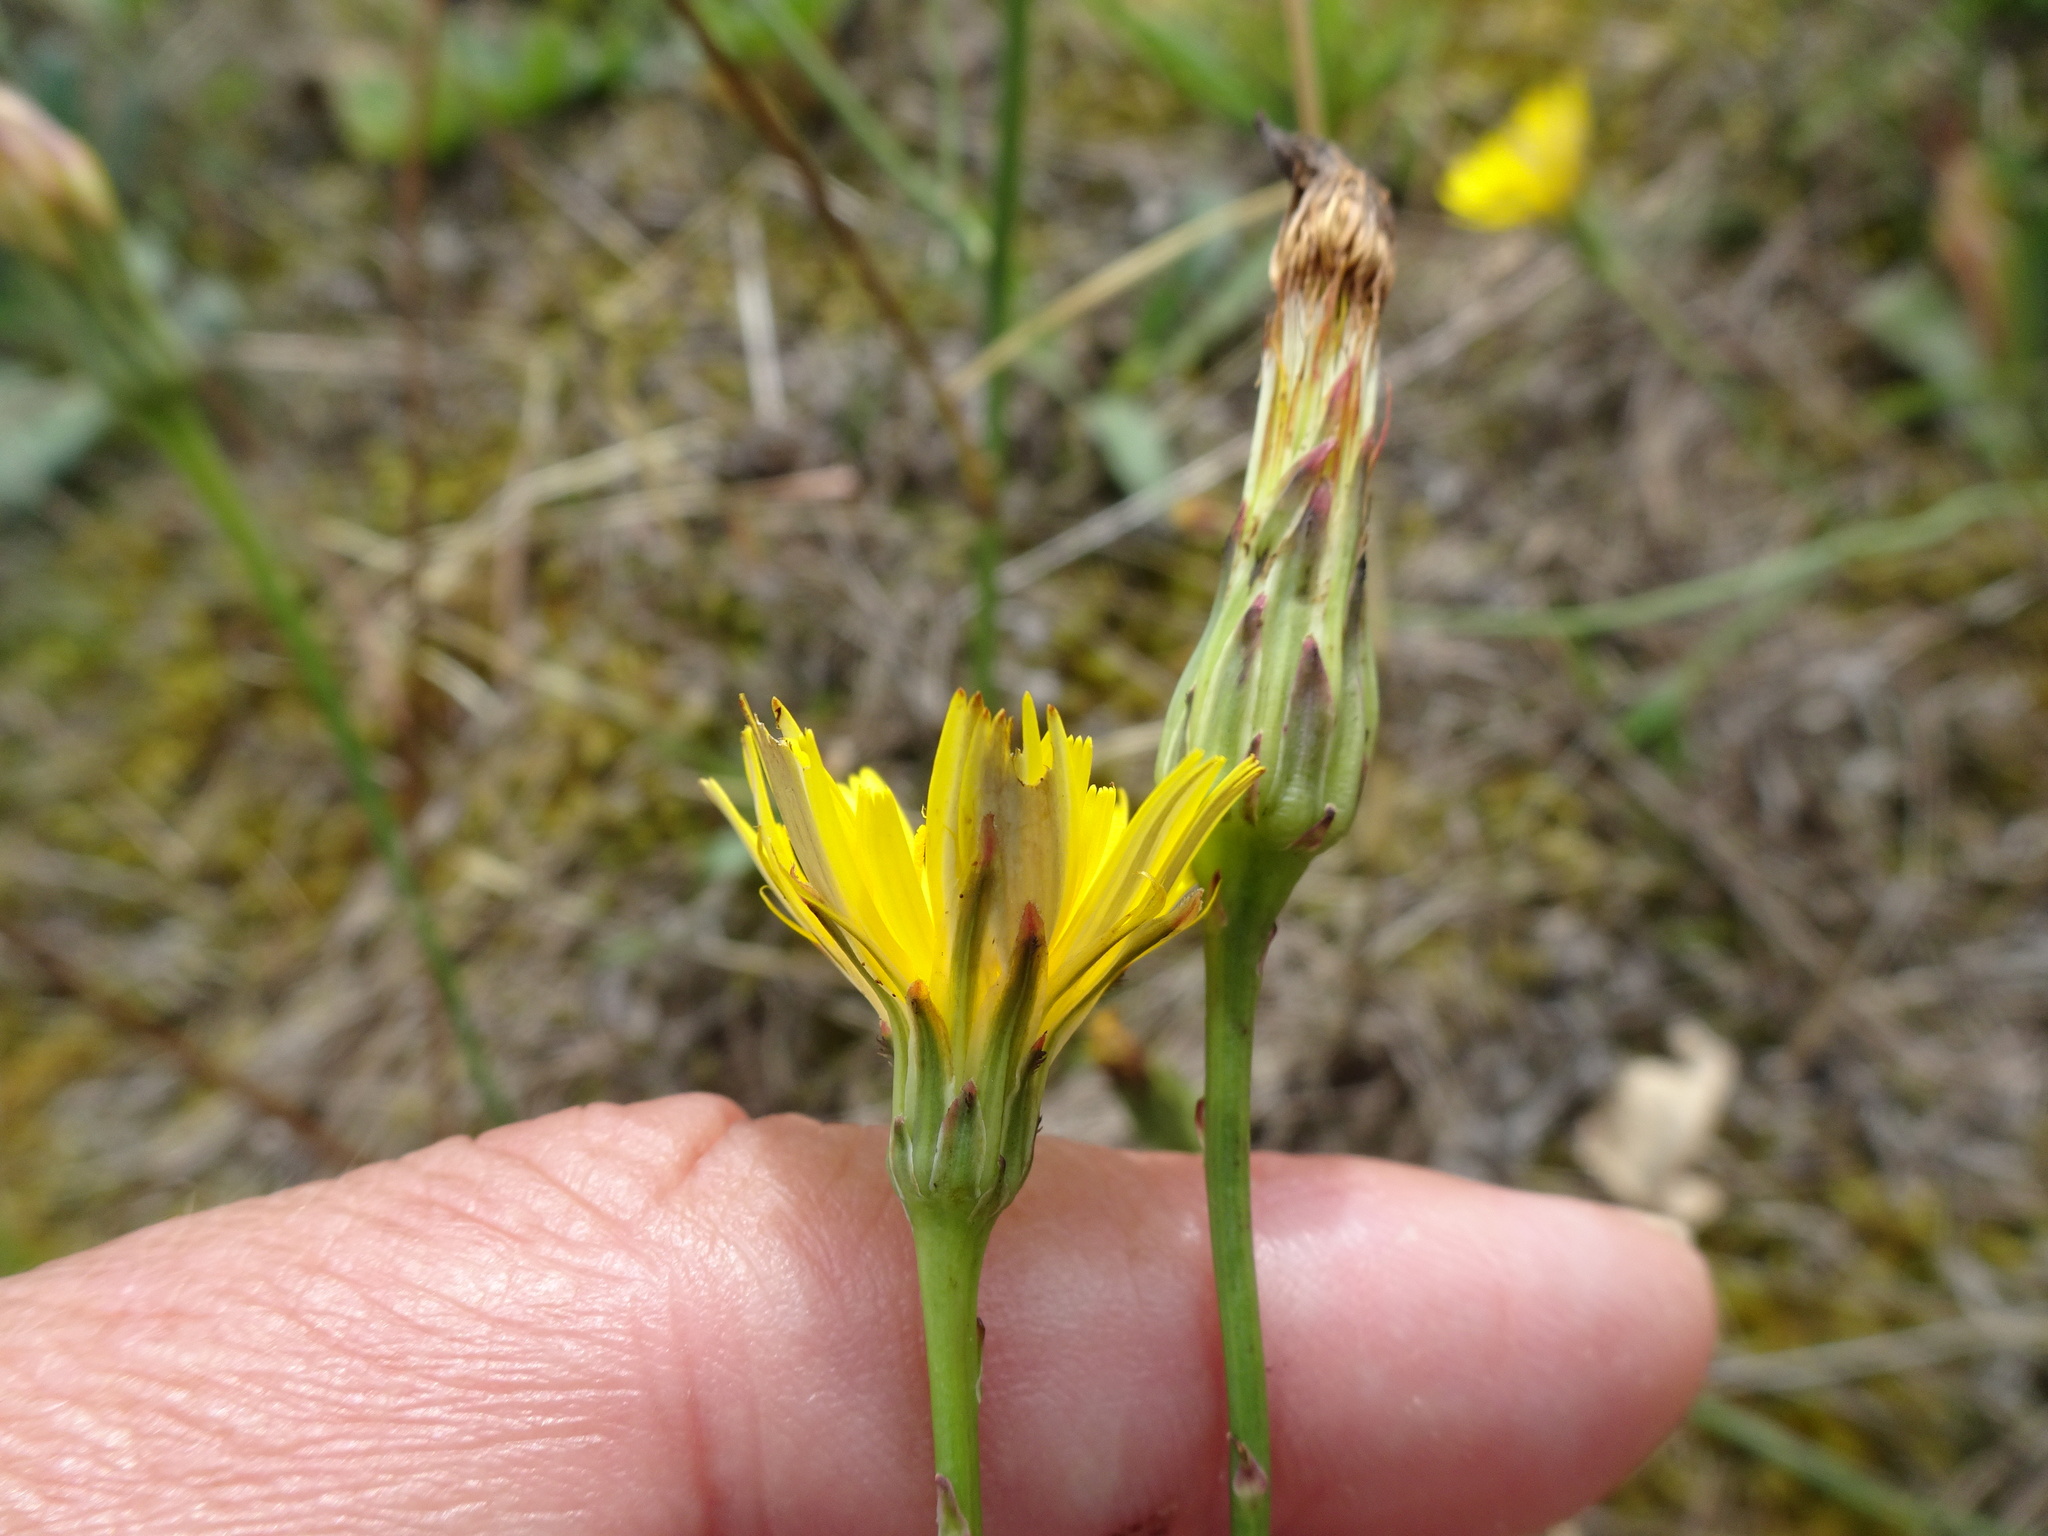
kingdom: Plantae
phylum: Tracheophyta
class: Magnoliopsida
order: Asterales
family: Asteraceae
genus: Hypochaeris
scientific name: Hypochaeris radicata
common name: Flatweed
